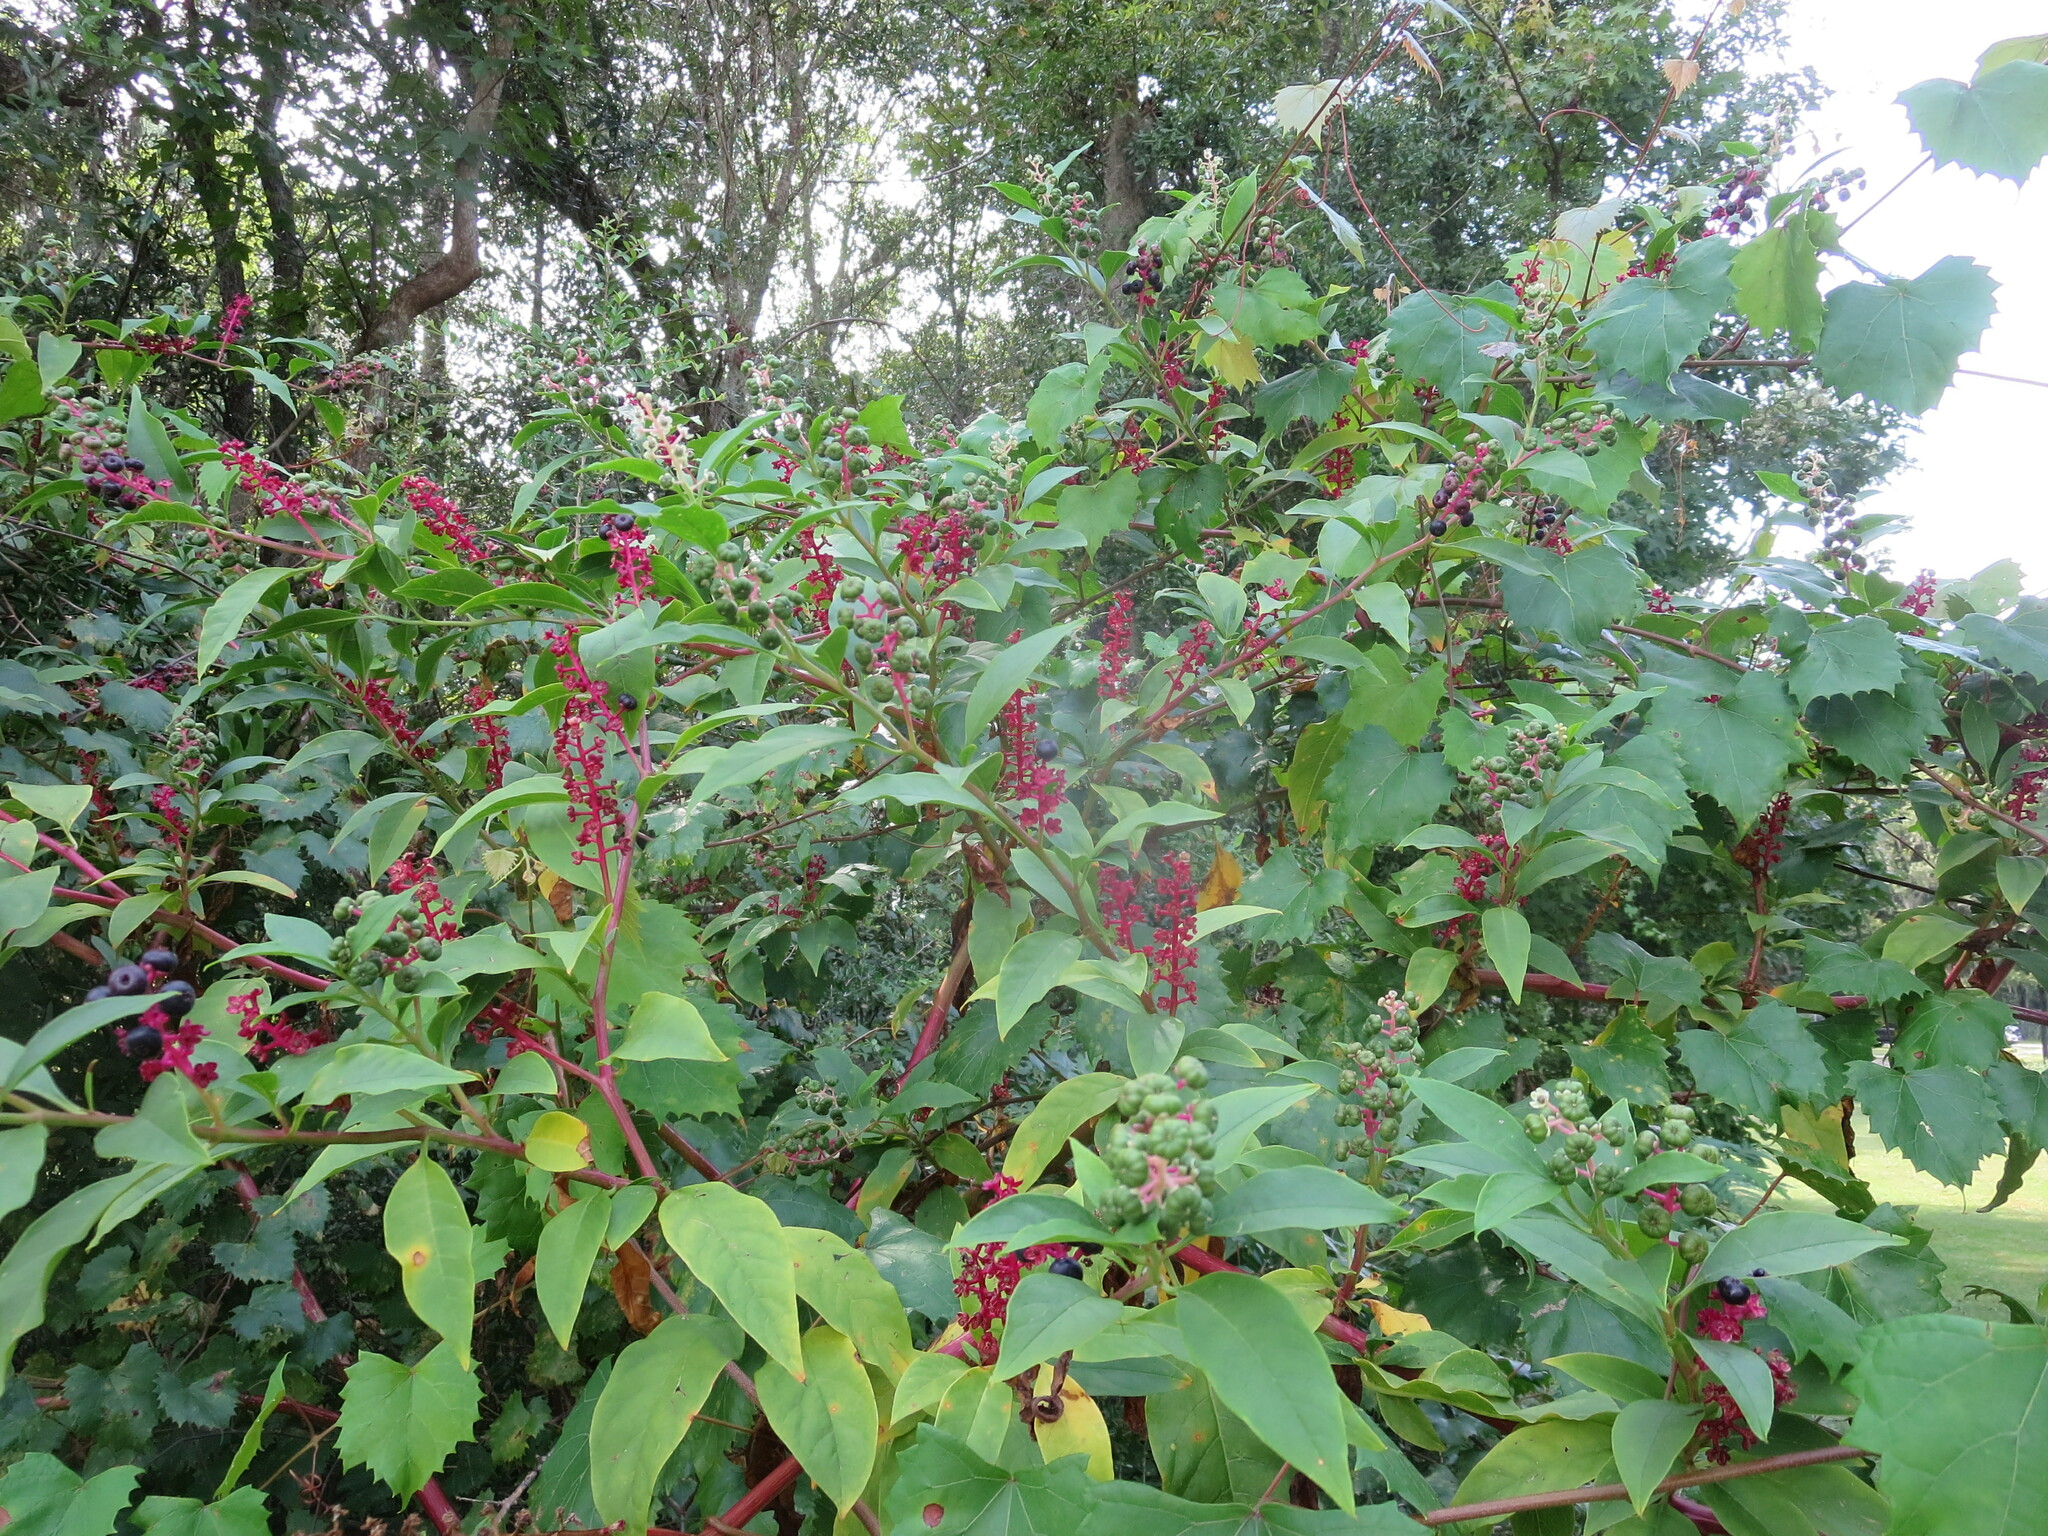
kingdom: Plantae
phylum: Tracheophyta
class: Magnoliopsida
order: Caryophyllales
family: Phytolaccaceae
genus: Phytolacca
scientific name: Phytolacca americana
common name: American pokeweed
